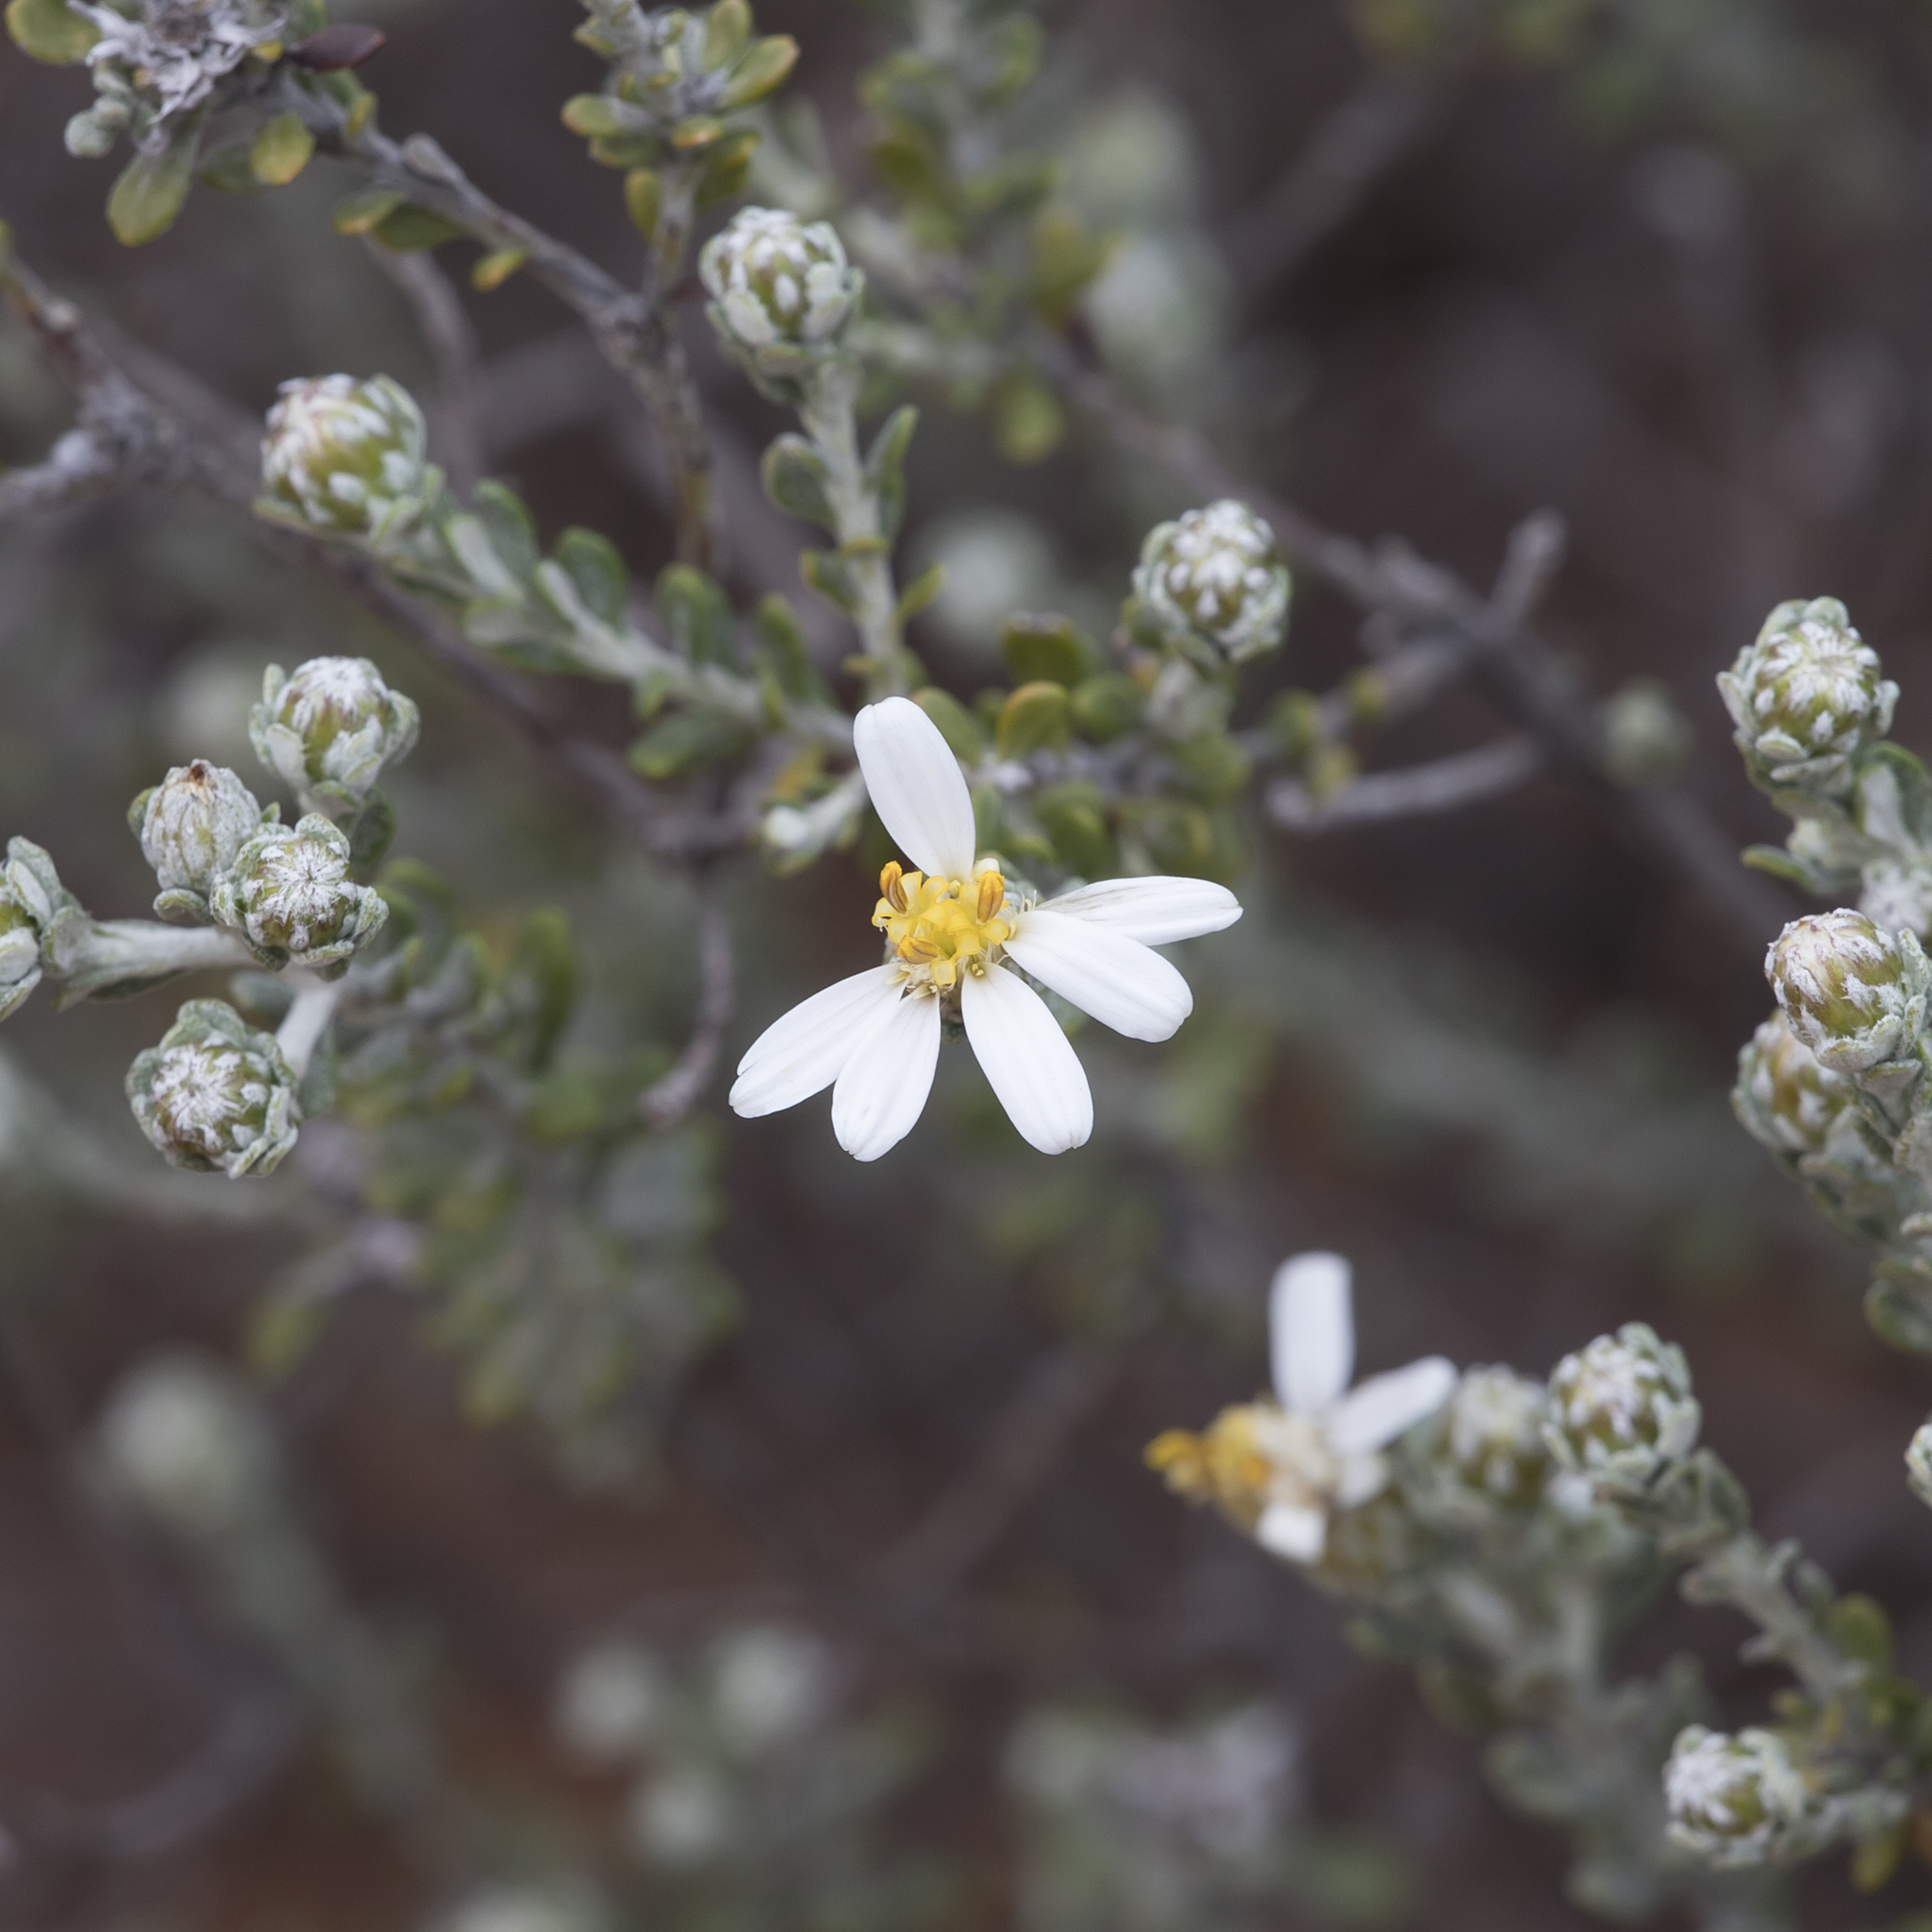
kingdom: Plantae
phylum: Tracheophyta
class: Magnoliopsida
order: Asterales
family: Asteraceae
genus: Olearia
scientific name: Olearia pimeleoides
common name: Showy daisybush
